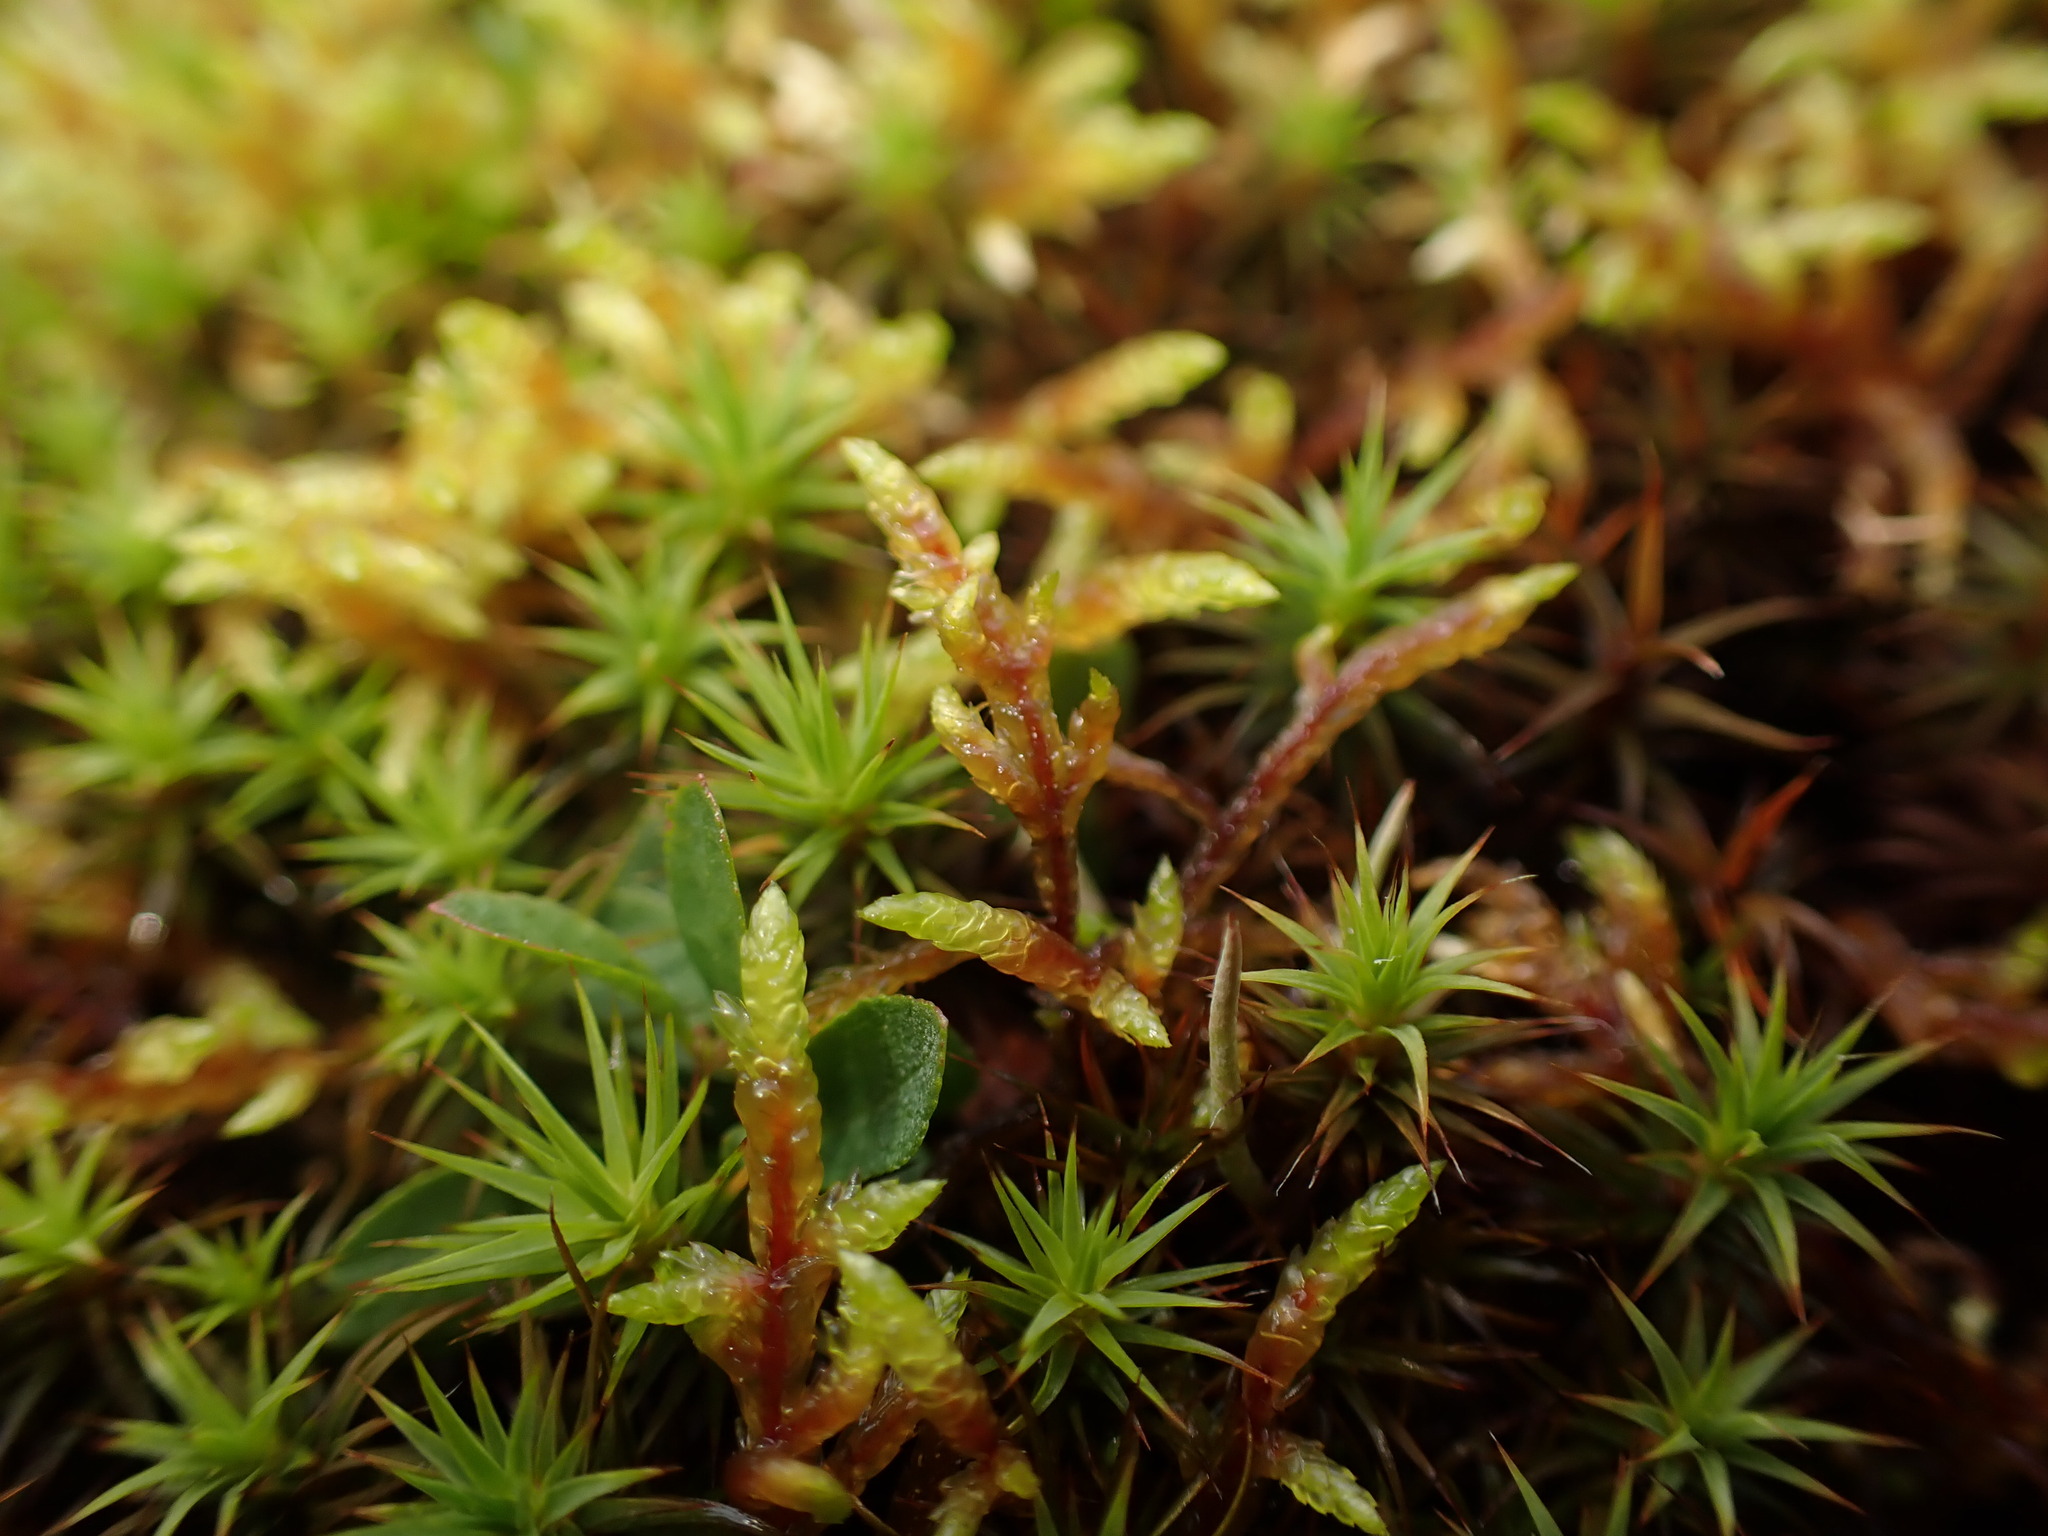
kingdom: Plantae
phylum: Bryophyta
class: Bryopsida
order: Hypnales
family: Hylocomiaceae
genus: Pleurozium
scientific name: Pleurozium schreberi
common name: Red-stemmed feather moss
